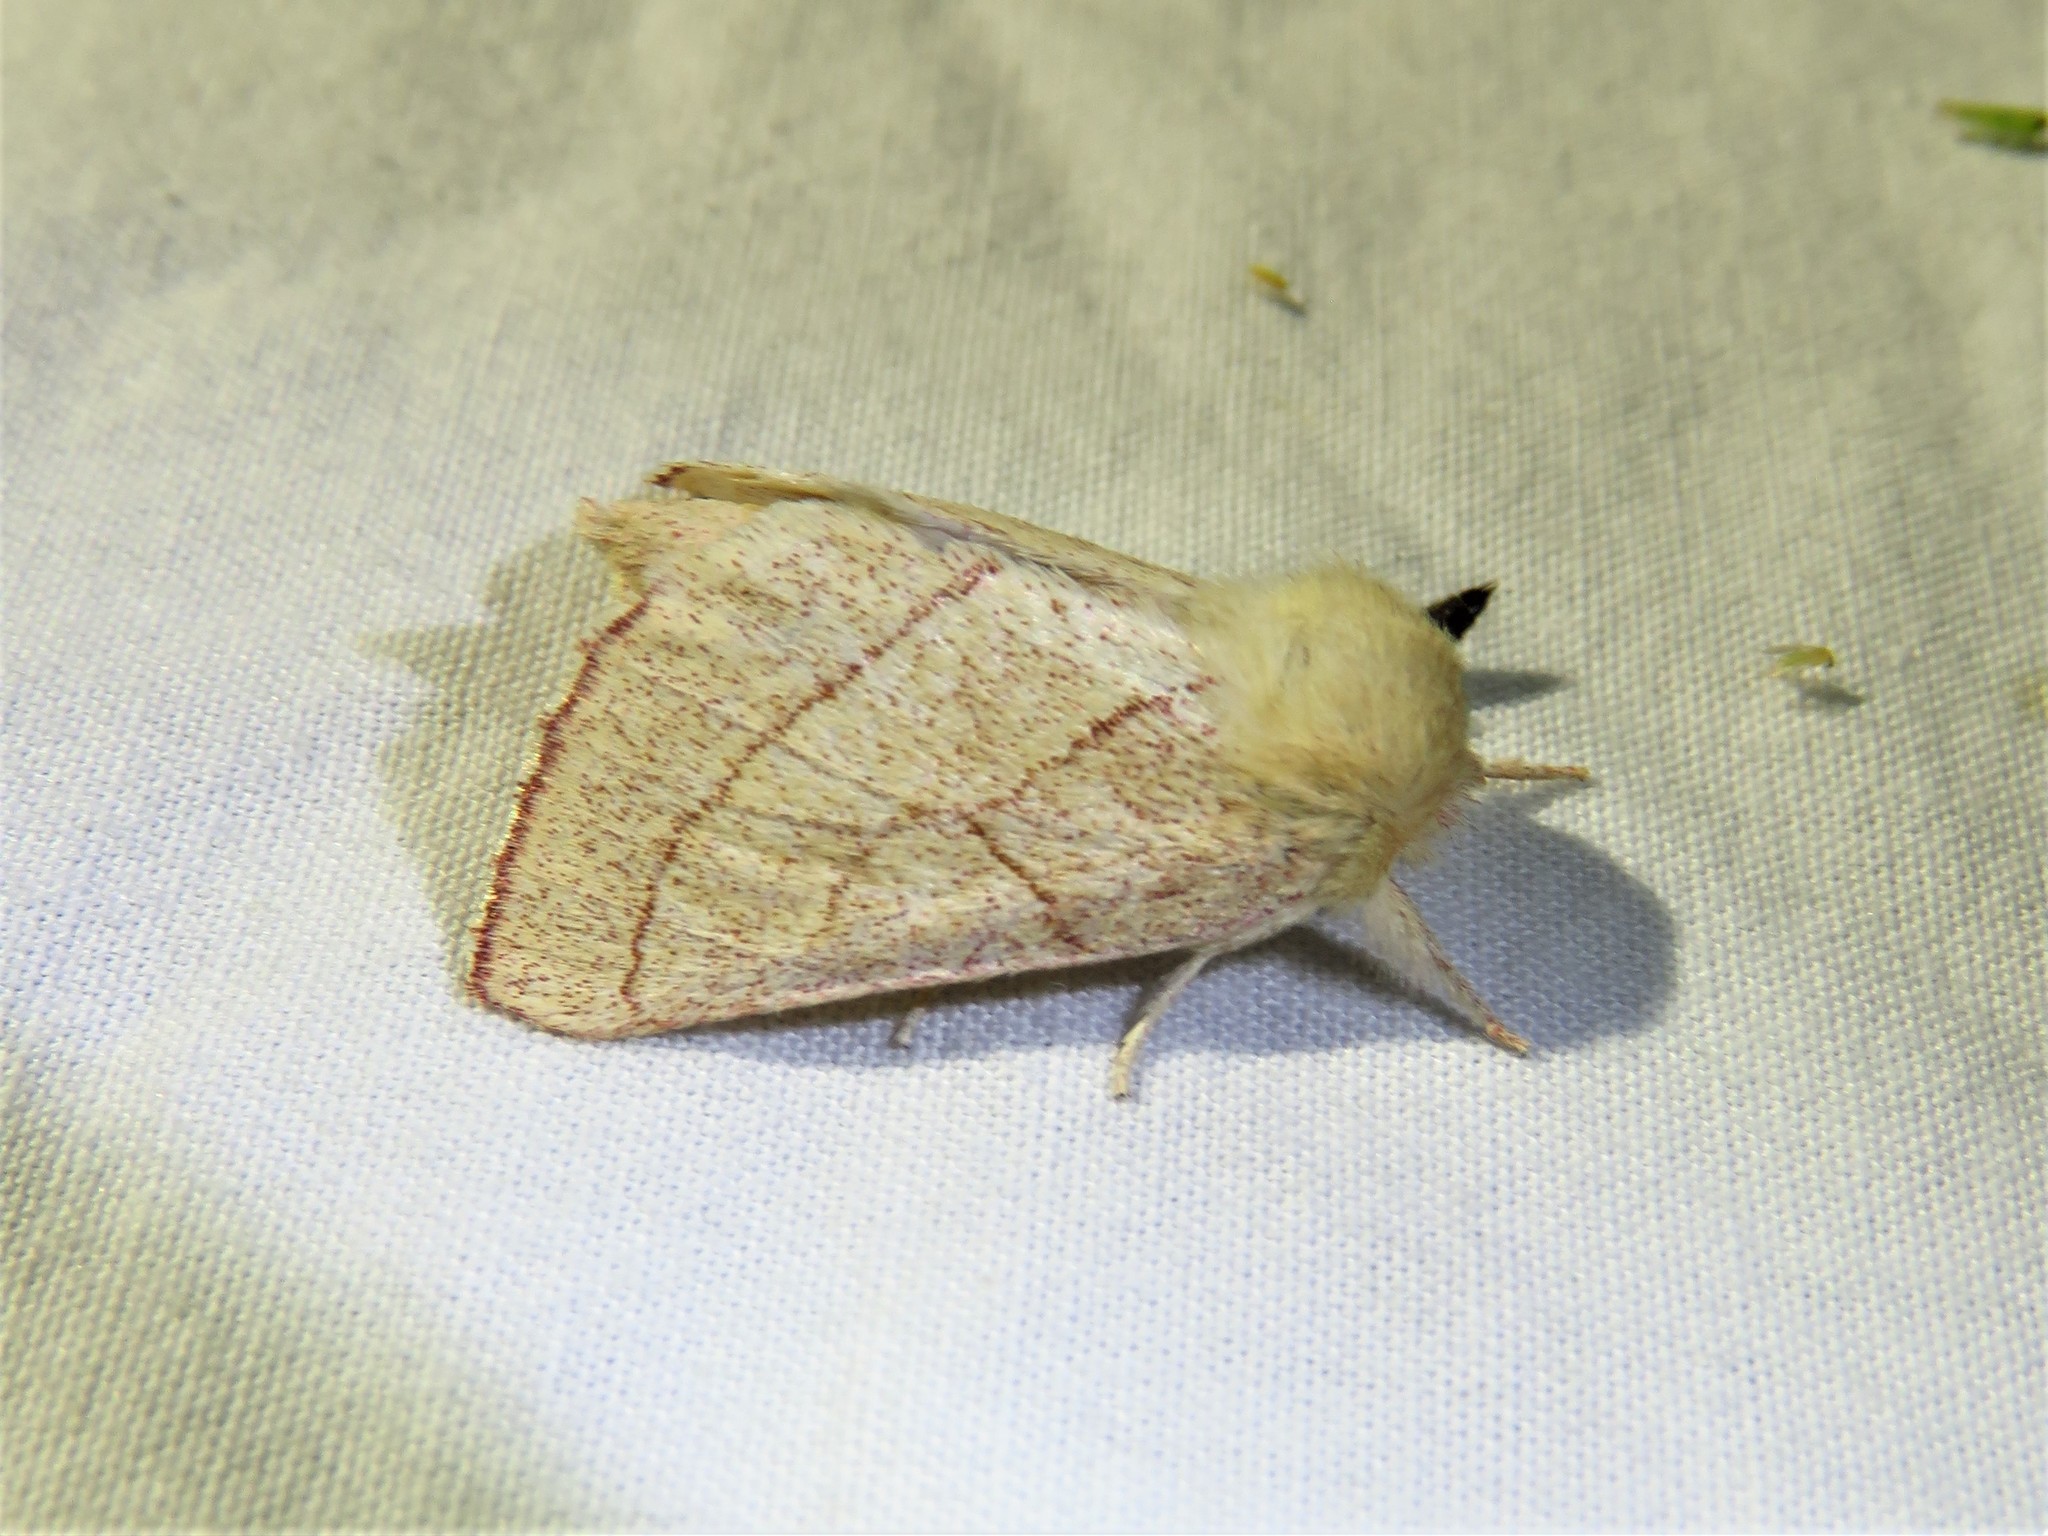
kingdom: Animalia
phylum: Arthropoda
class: Insecta
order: Lepidoptera
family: Notodontidae
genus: Hyparpax
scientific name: Hyparpax aurostriata
